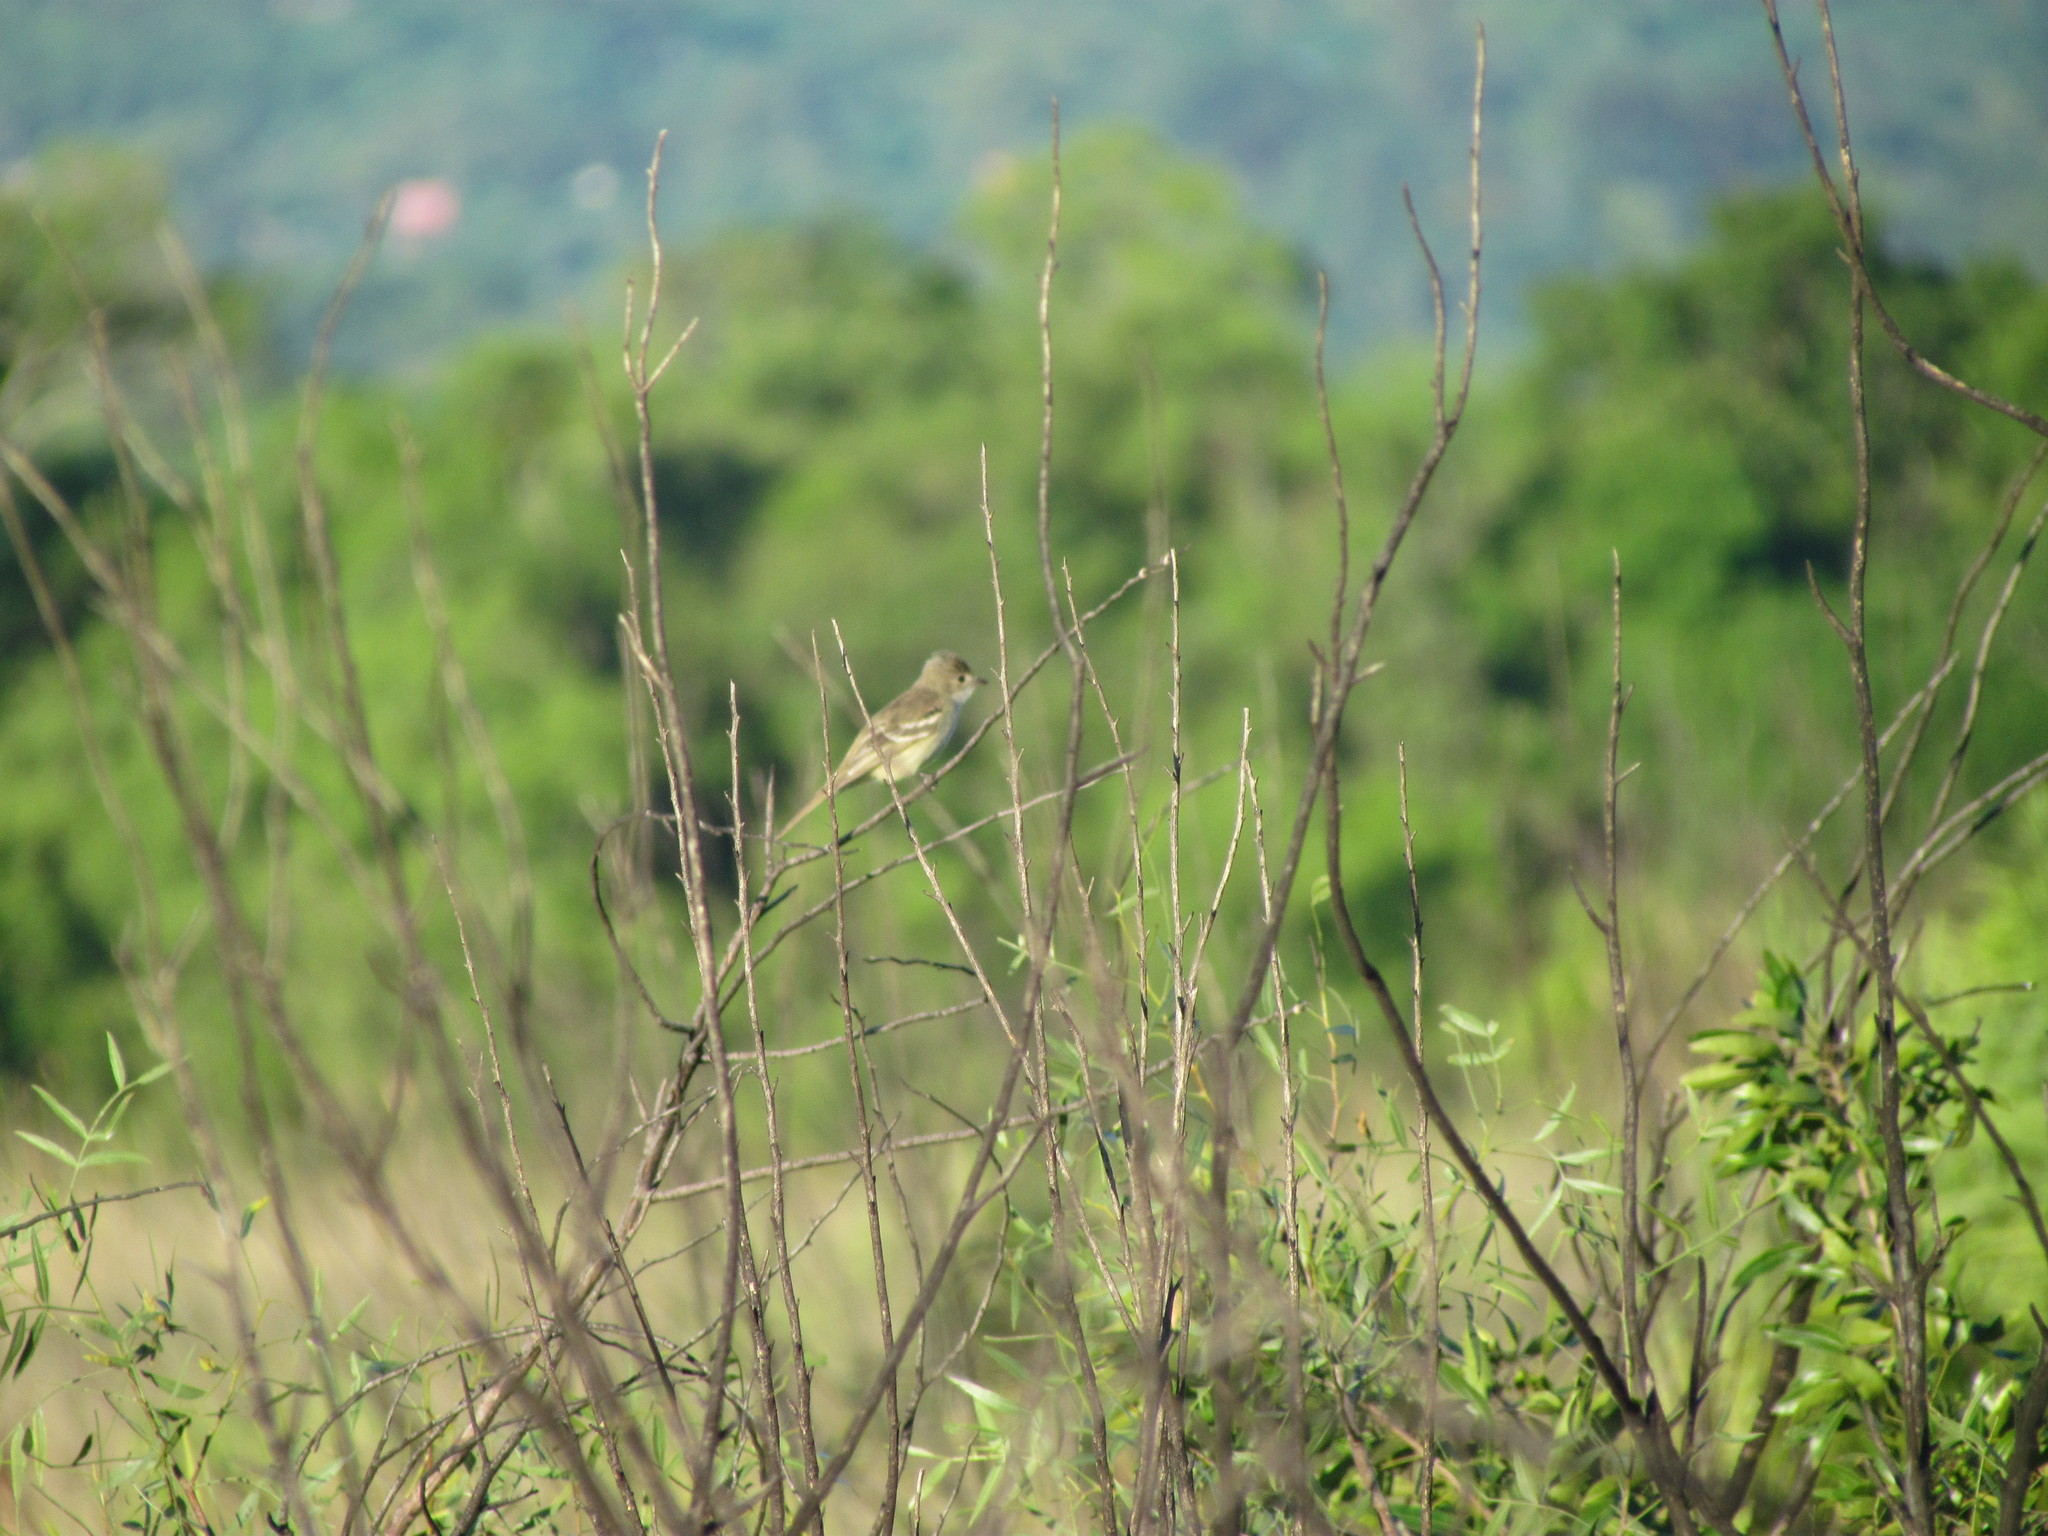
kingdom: Animalia
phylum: Chordata
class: Aves
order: Passeriformes
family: Tyrannidae
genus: Elaenia
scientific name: Elaenia flavogaster
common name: Yellow-bellied elaenia
